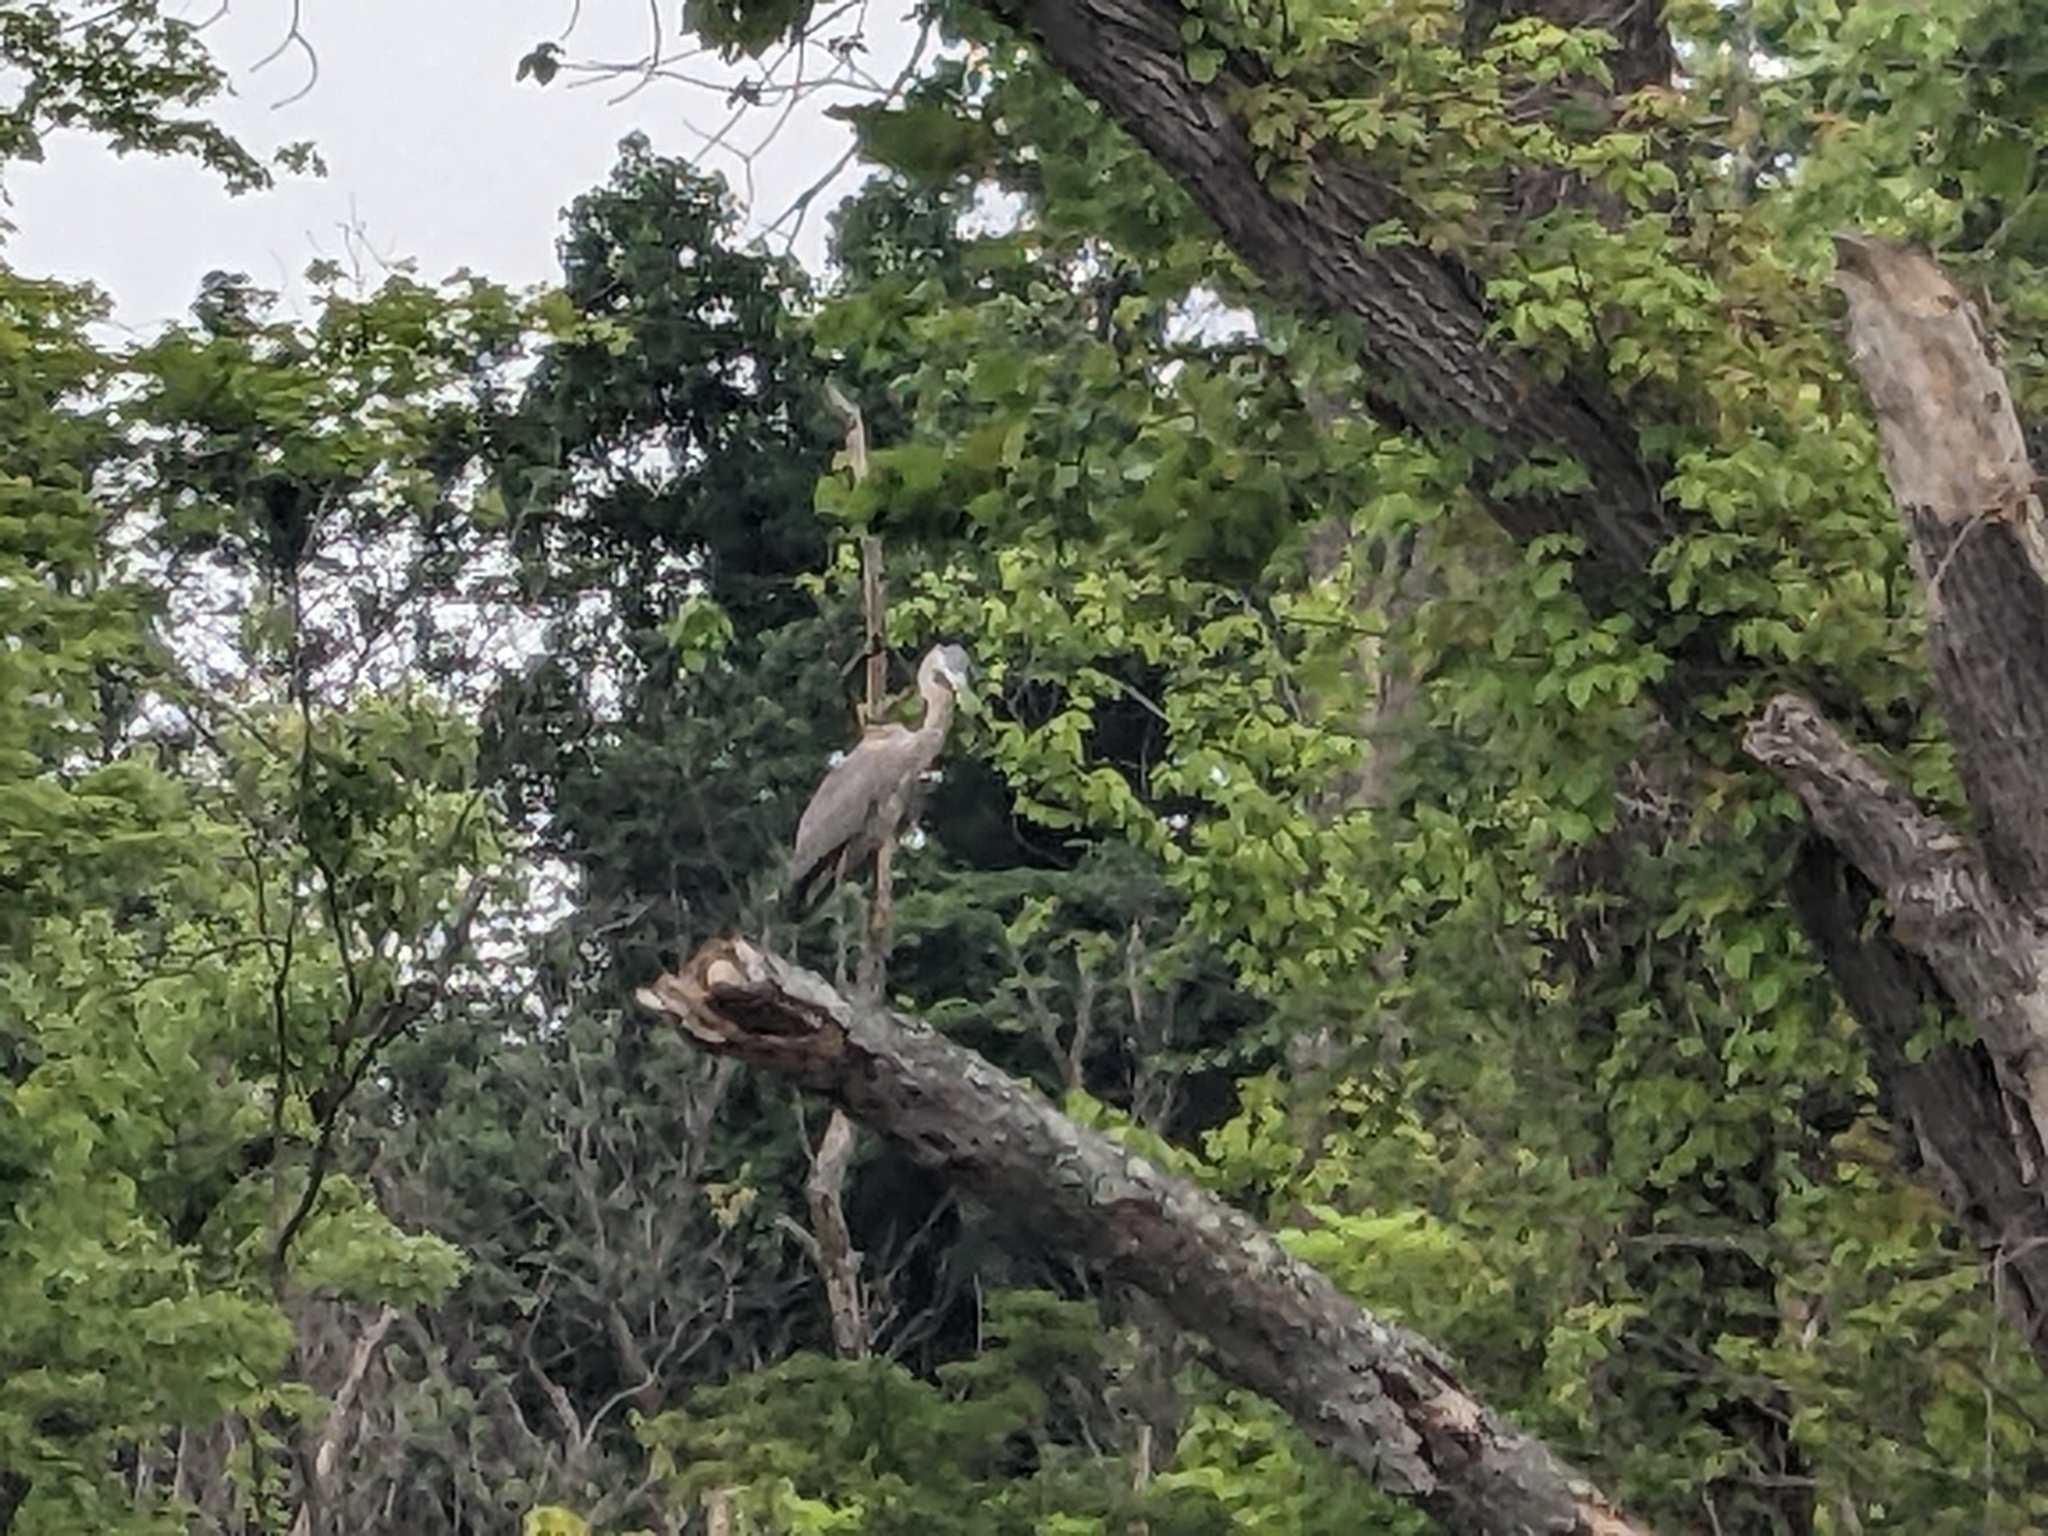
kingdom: Animalia
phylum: Chordata
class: Aves
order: Pelecaniformes
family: Ardeidae
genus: Ardea
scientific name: Ardea herodias
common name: Great blue heron
